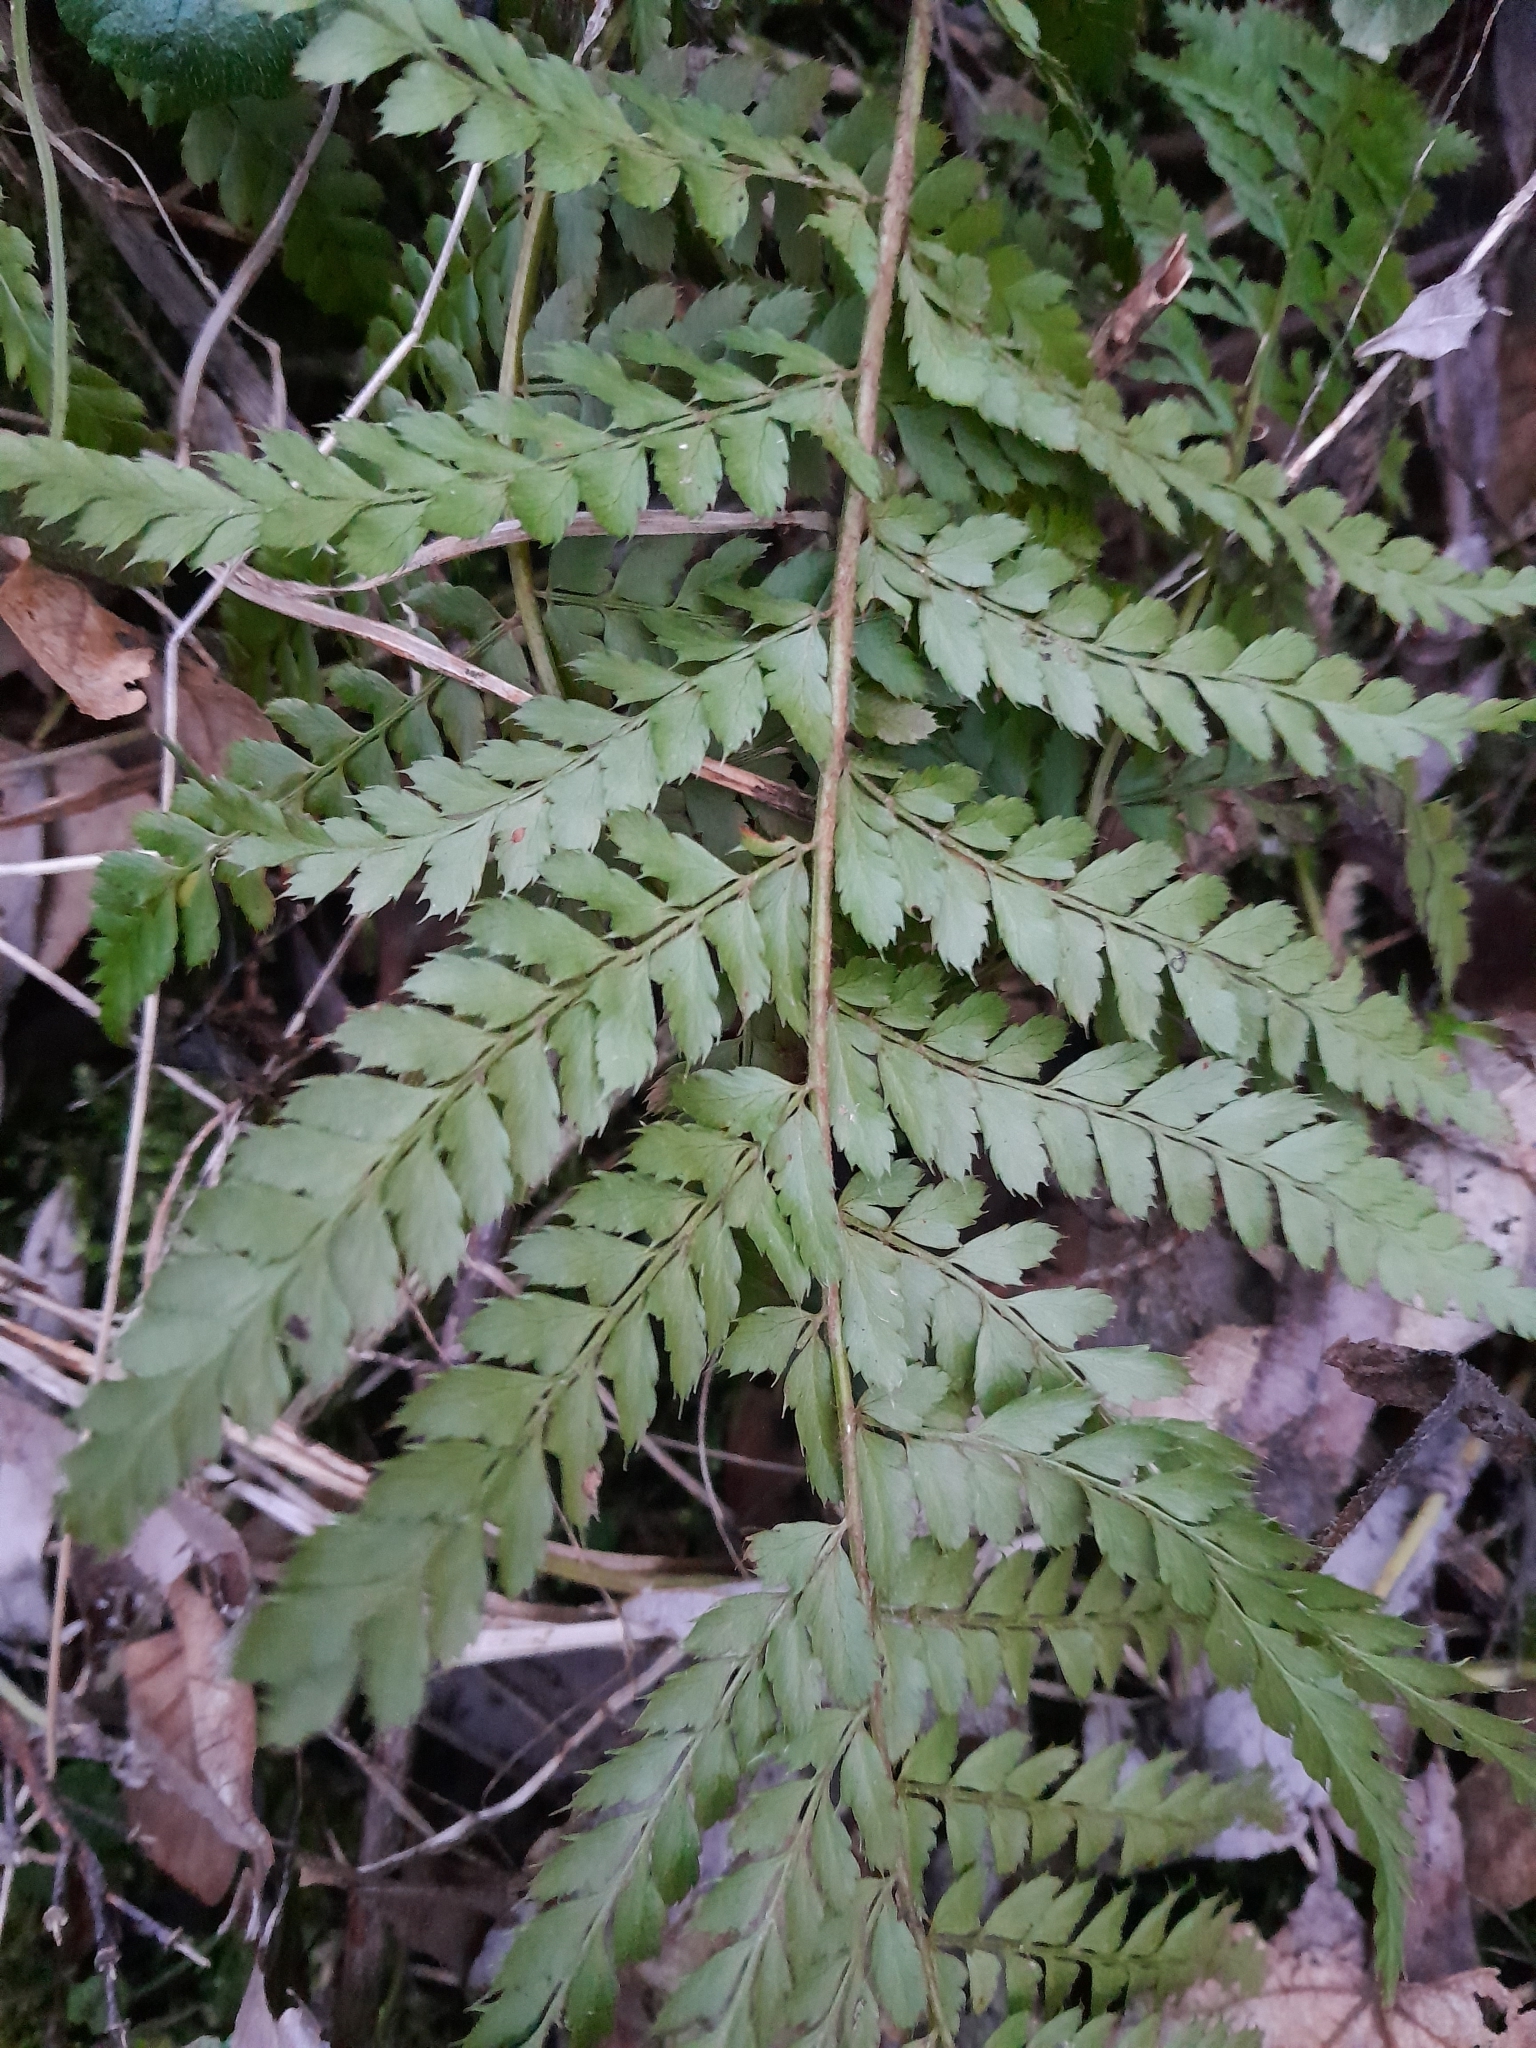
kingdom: Plantae
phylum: Tracheophyta
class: Polypodiopsida
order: Polypodiales
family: Dryopteridaceae
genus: Polystichum
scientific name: Polystichum setiferum
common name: Soft shield-fern
